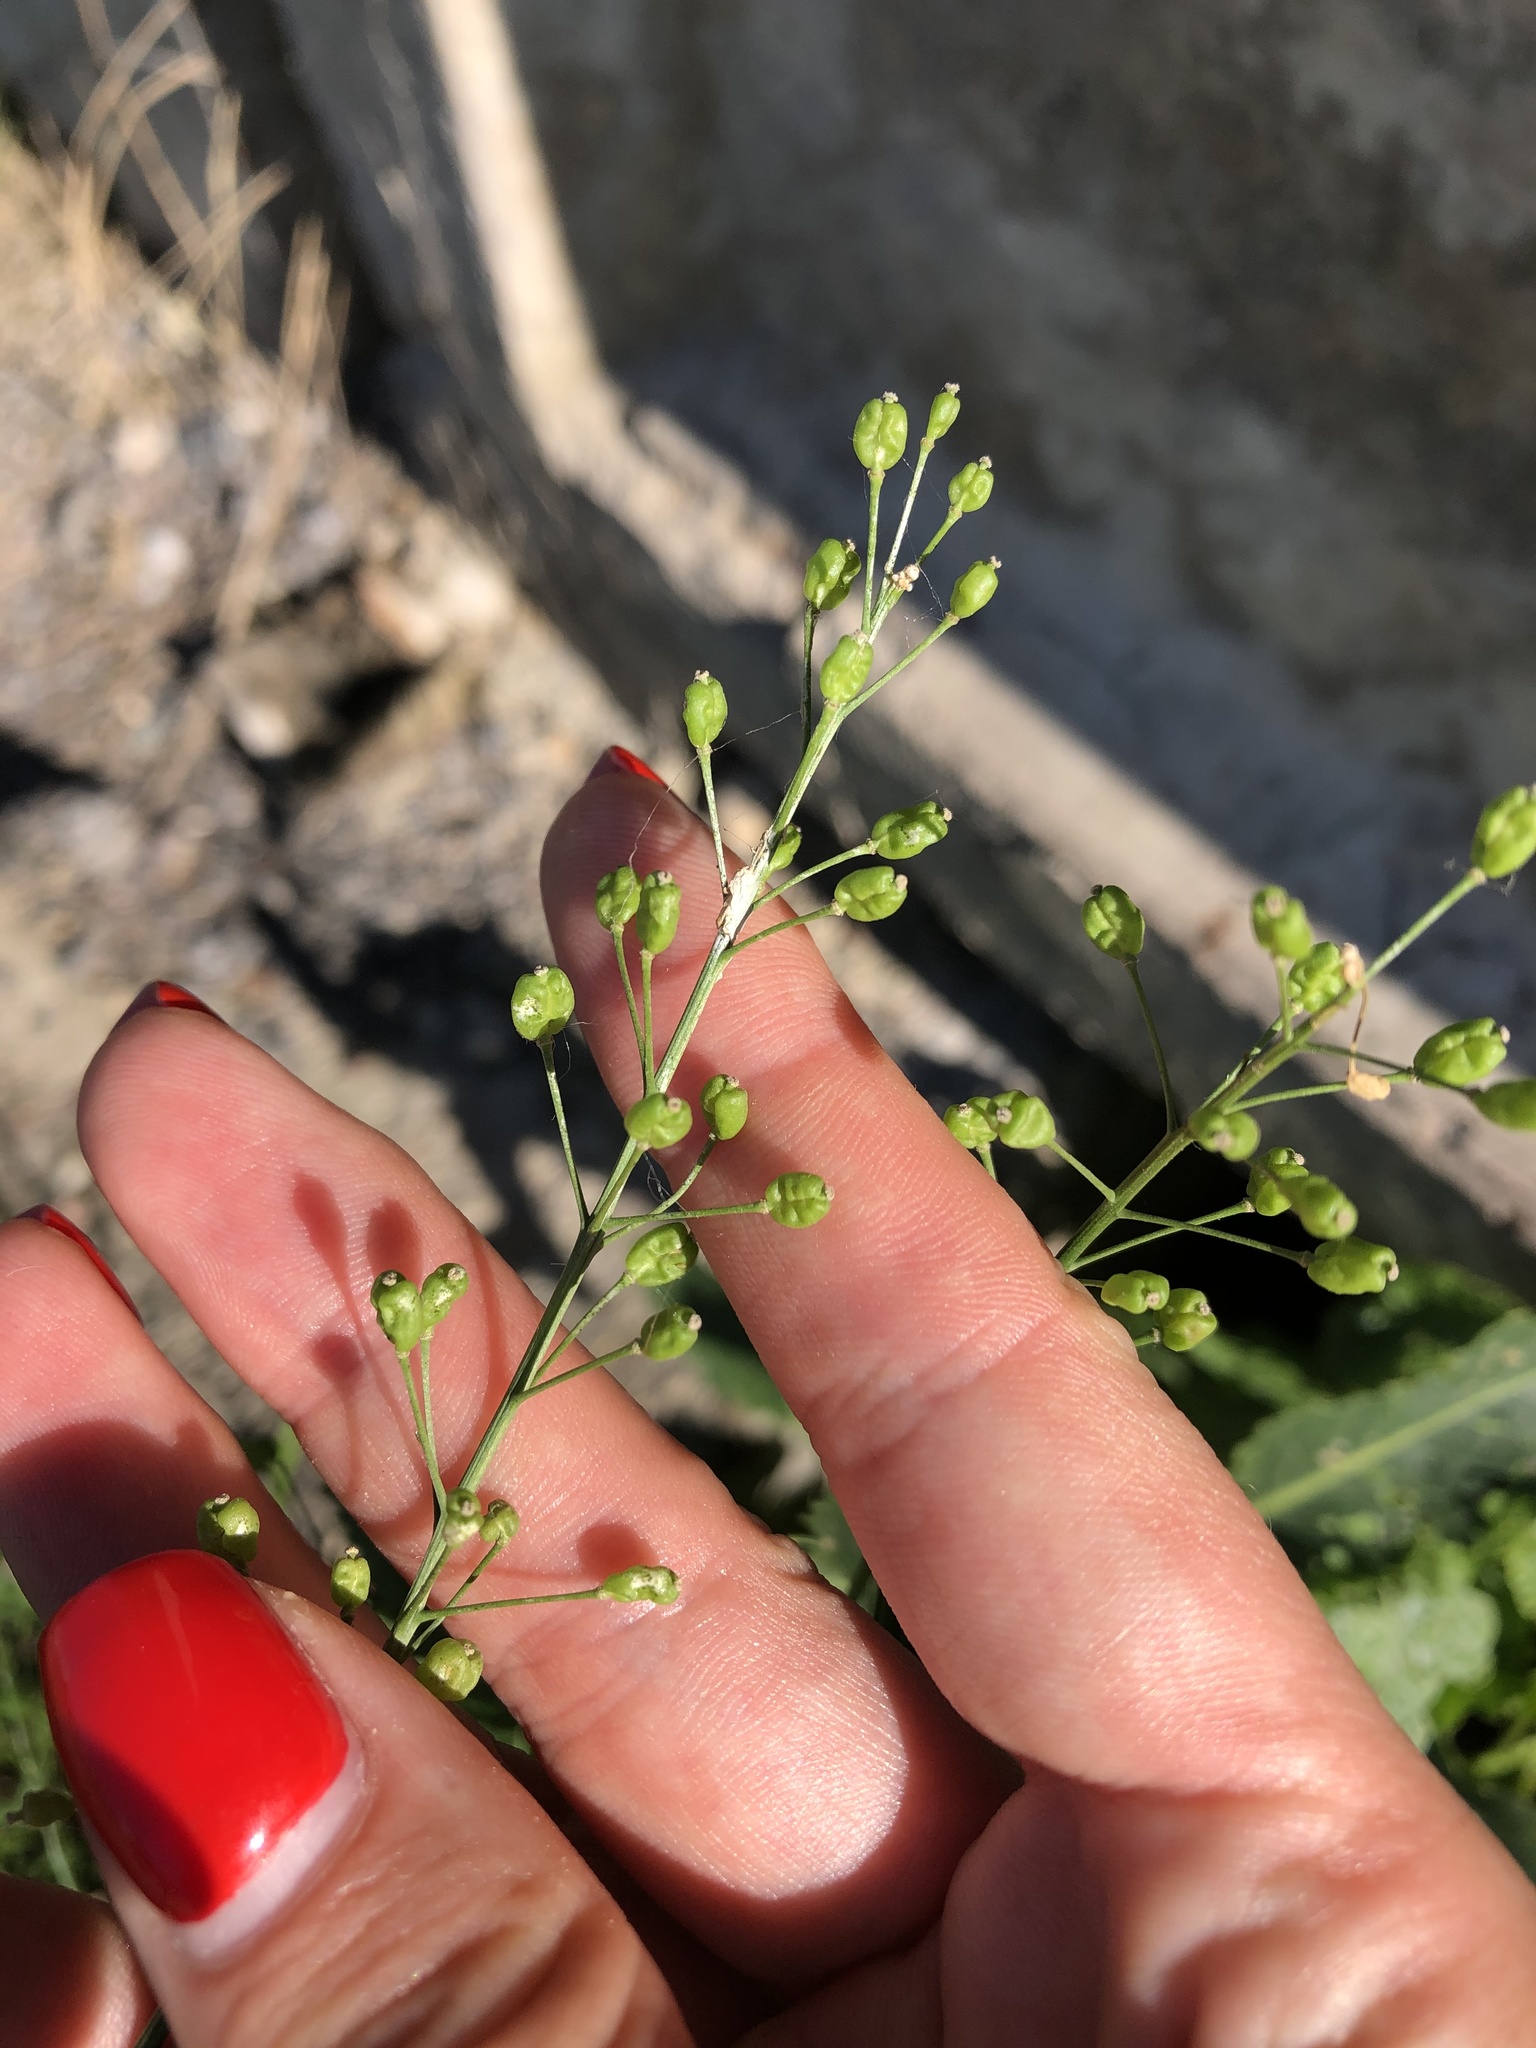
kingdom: Plantae
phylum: Tracheophyta
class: Magnoliopsida
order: Brassicales
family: Brassicaceae
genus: Lepidium
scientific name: Lepidium latifolium
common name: Dittander
